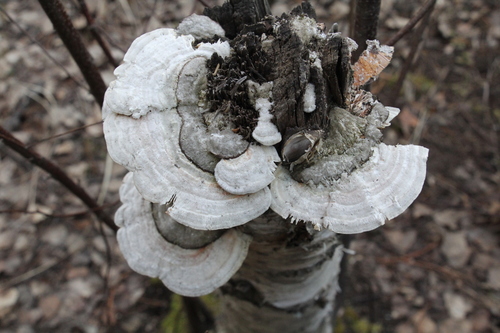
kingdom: Fungi
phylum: Basidiomycota
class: Agaricomycetes
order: Polyporales
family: Polyporaceae
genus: Lenzites
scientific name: Lenzites betulinus
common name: Birch mazegill
